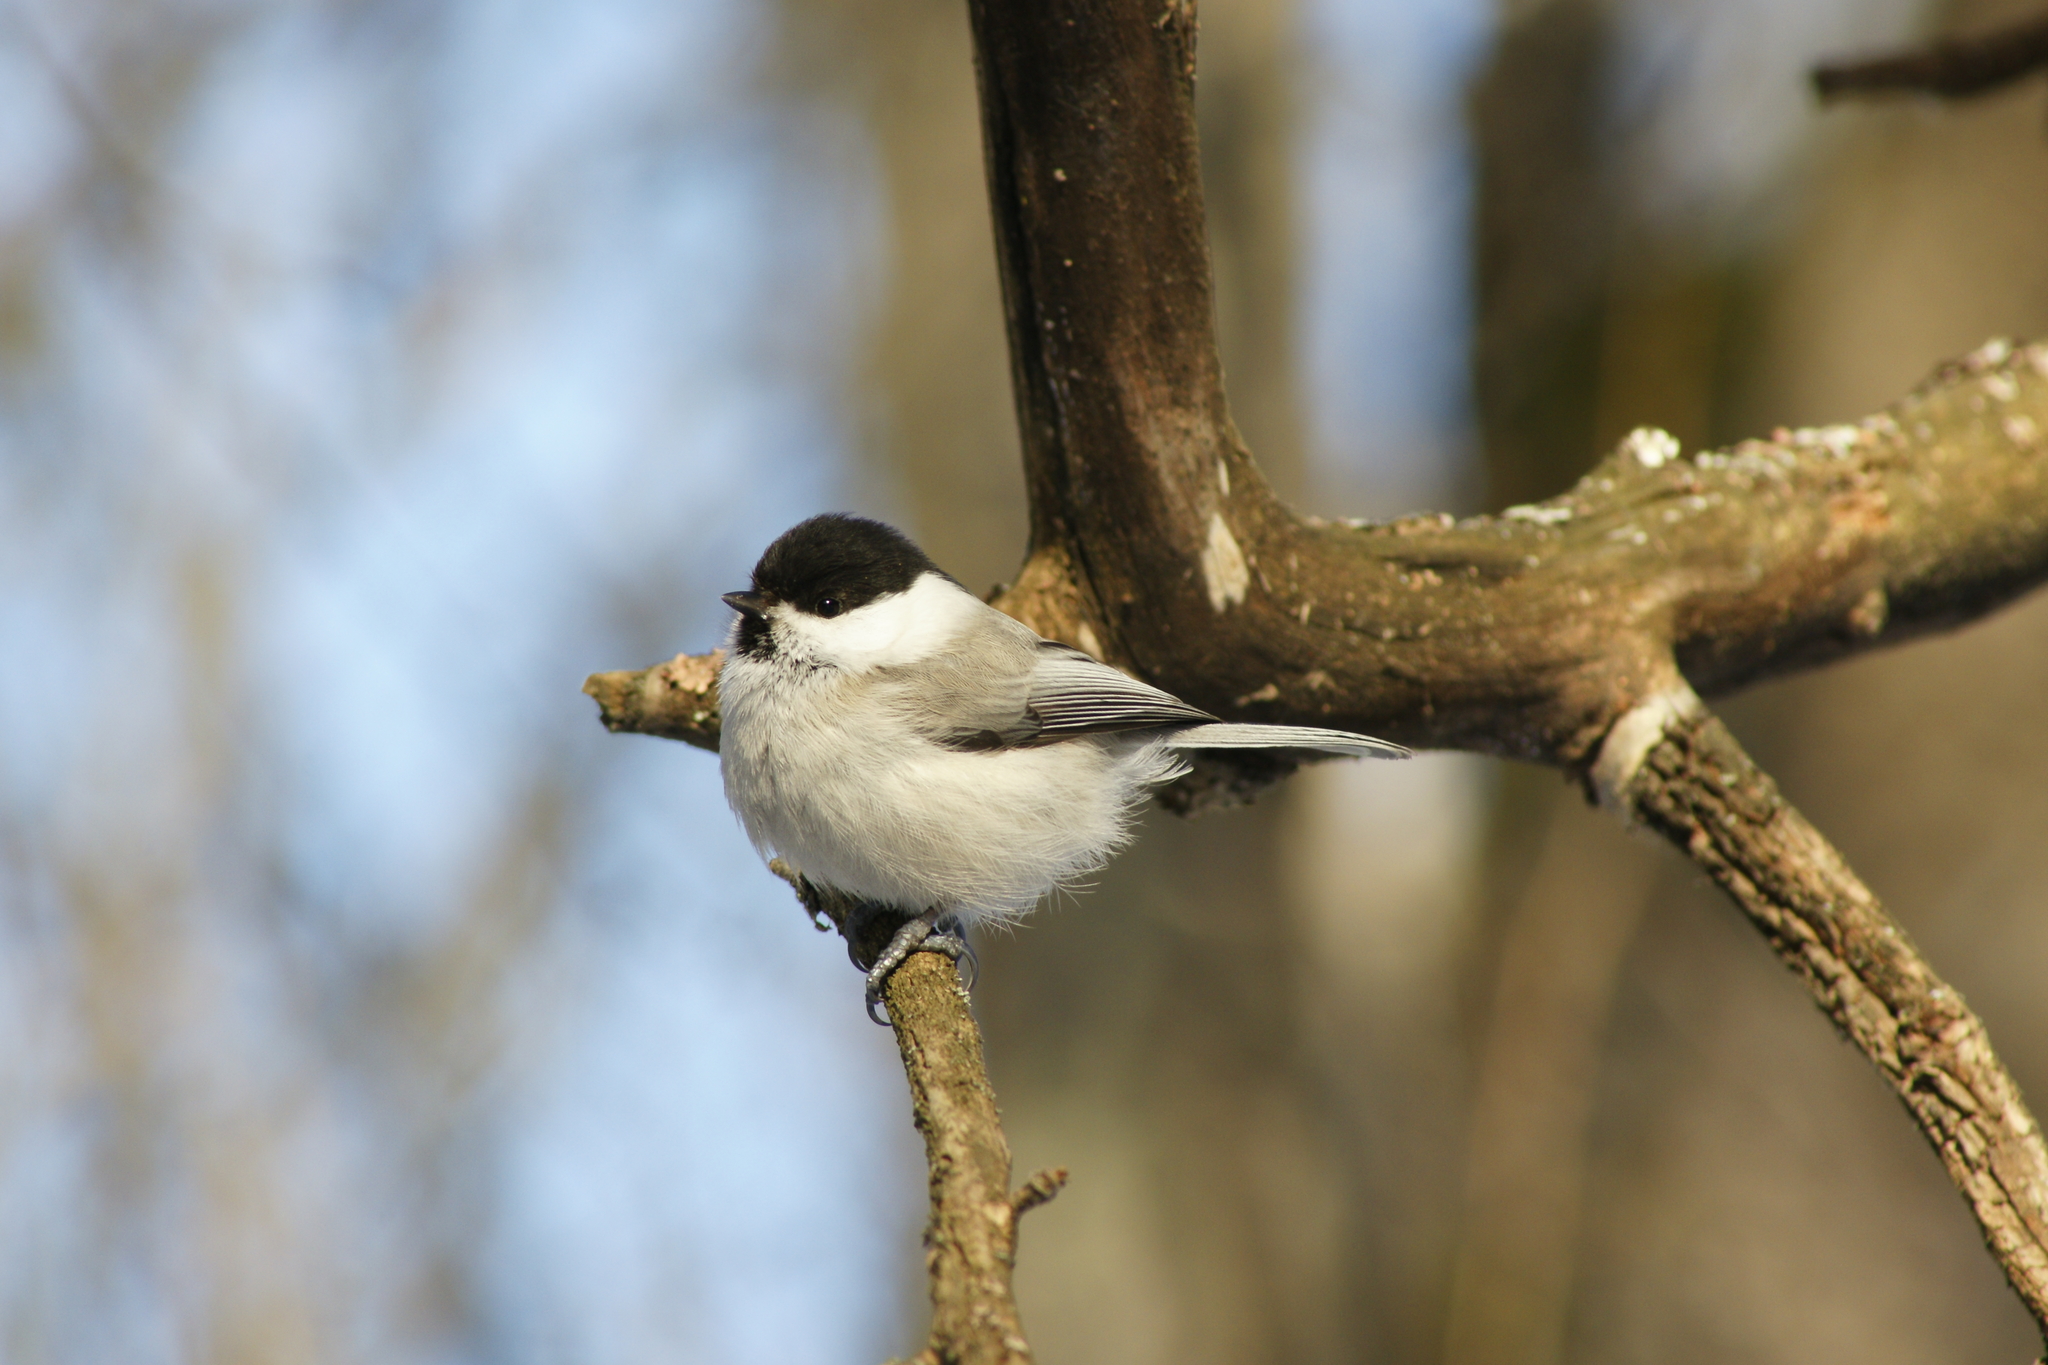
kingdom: Animalia
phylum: Chordata
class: Aves
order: Passeriformes
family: Paridae
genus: Poecile
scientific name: Poecile montanus
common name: Willow tit
